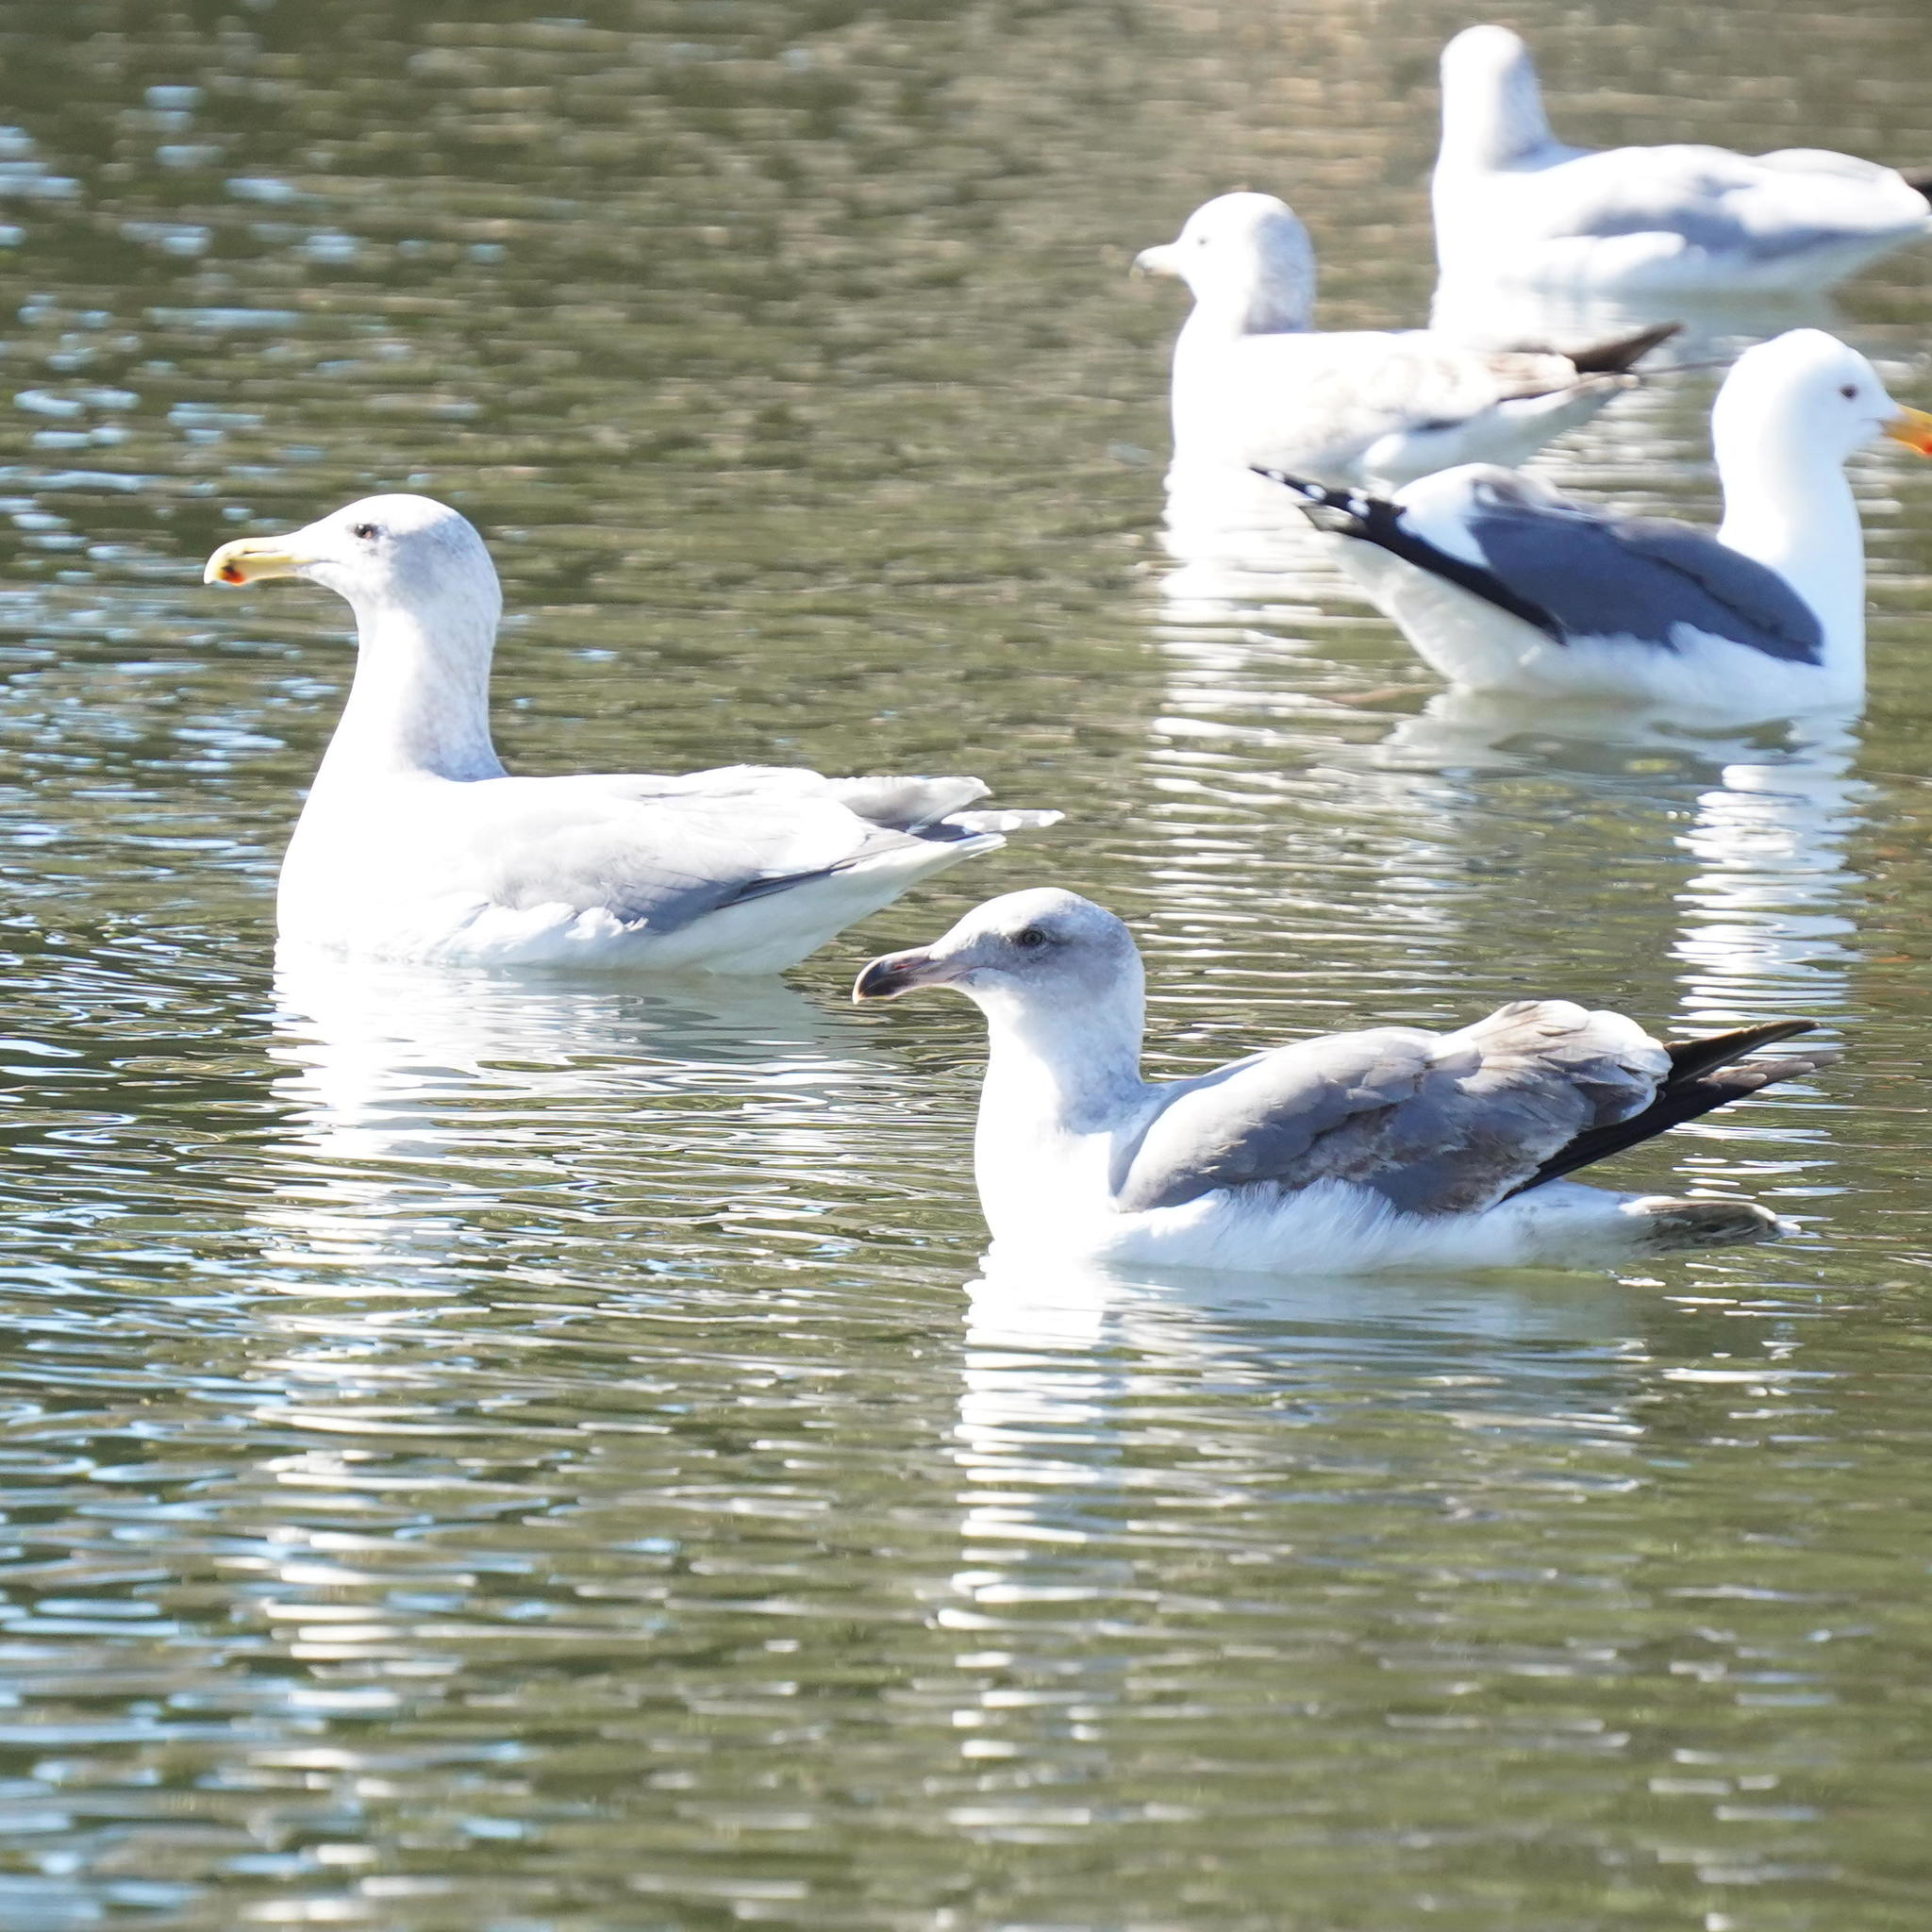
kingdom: Animalia
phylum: Chordata
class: Aves
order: Charadriiformes
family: Laridae
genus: Larus
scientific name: Larus occidentalis
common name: Western gull
